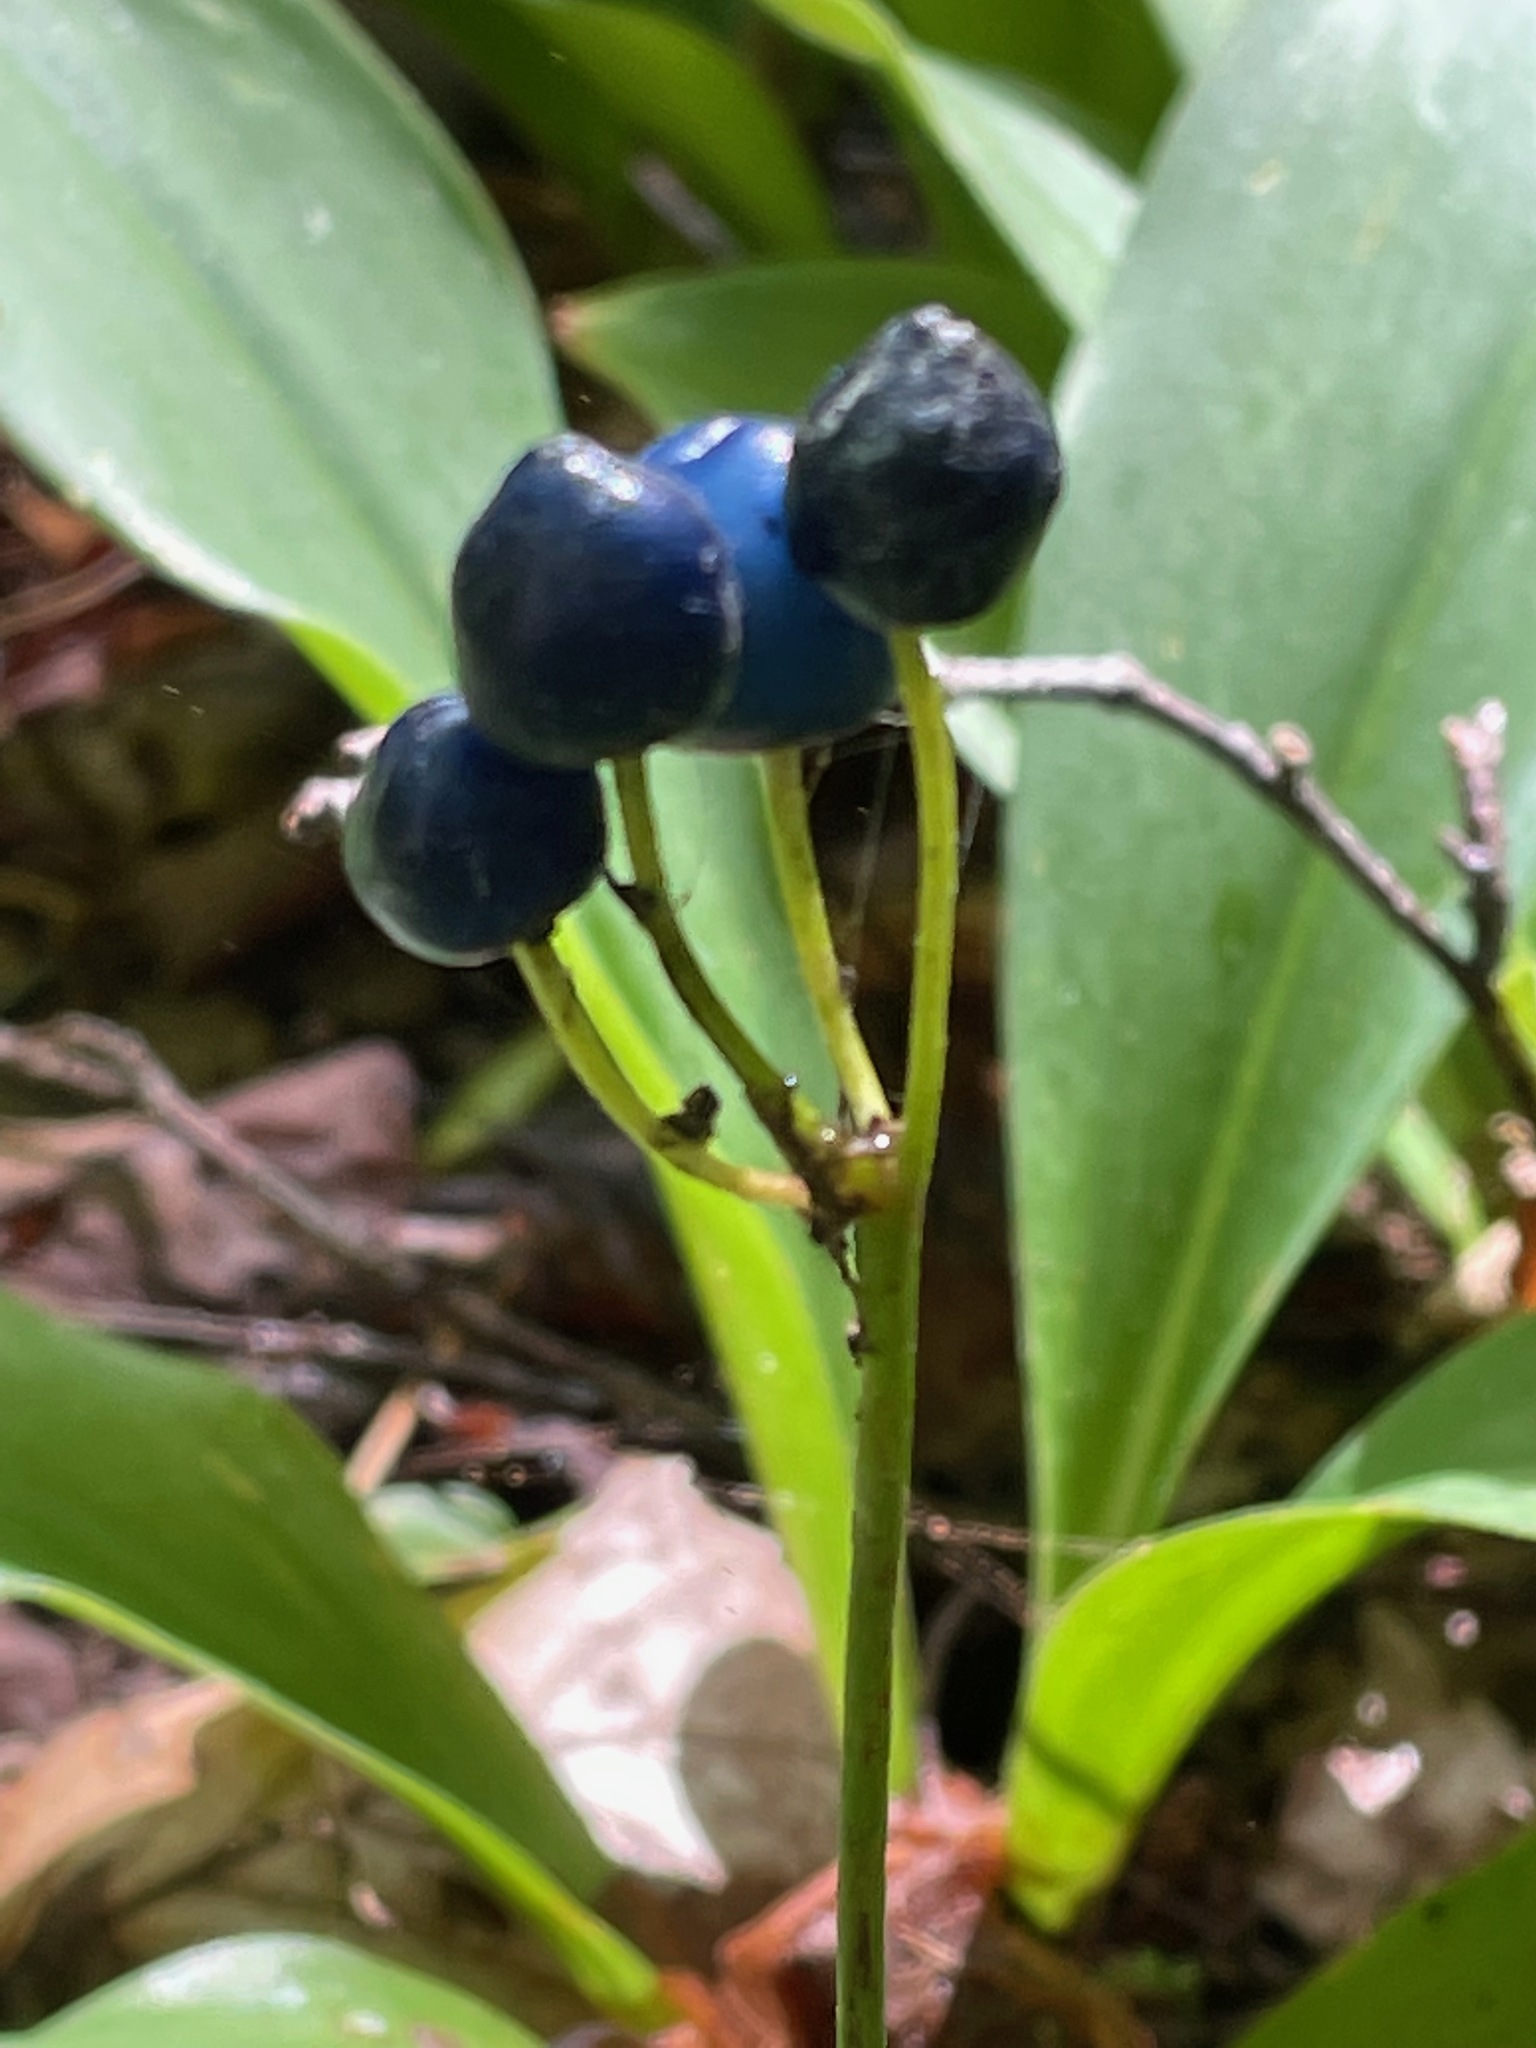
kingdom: Plantae
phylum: Tracheophyta
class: Liliopsida
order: Liliales
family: Liliaceae
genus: Clintonia
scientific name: Clintonia borealis
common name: Yellow clintonia
